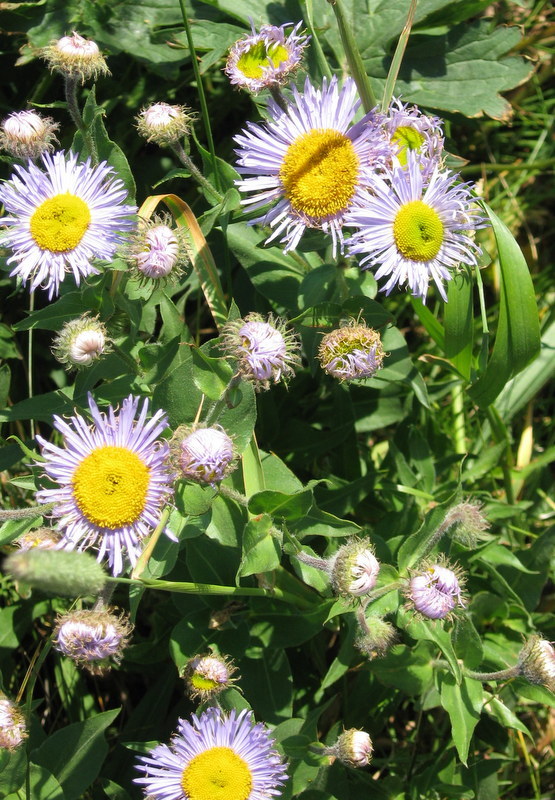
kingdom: Plantae
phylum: Tracheophyta
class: Magnoliopsida
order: Asterales
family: Asteraceae
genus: Erigeron
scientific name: Erigeron speciosus
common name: Aspen fleabane
